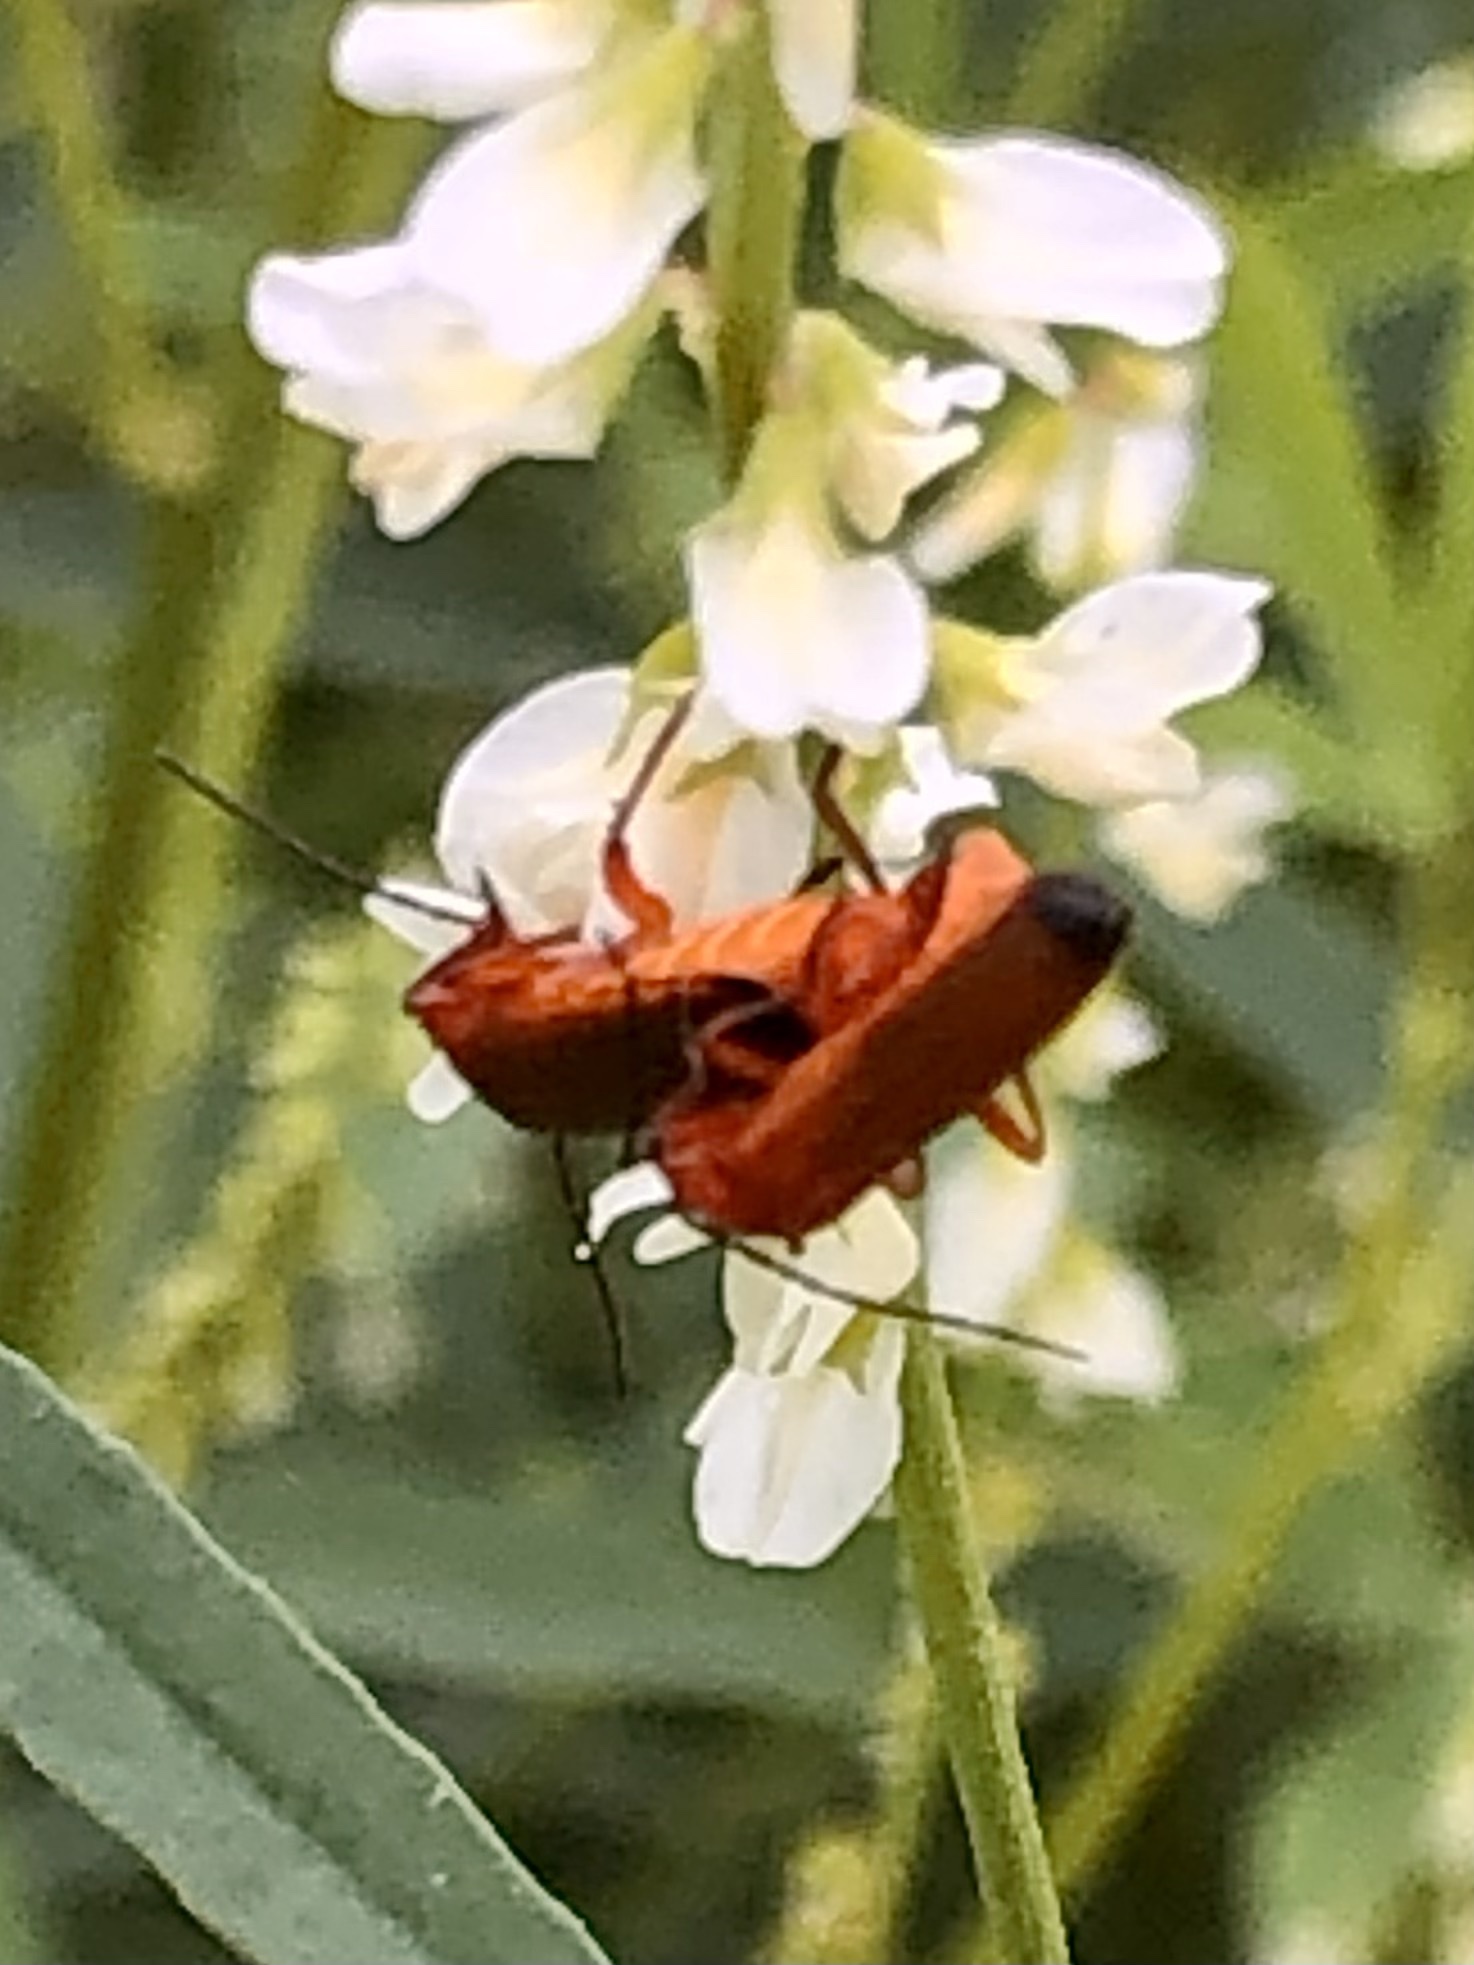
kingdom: Animalia
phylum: Arthropoda
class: Insecta
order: Coleoptera
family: Cantharidae
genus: Rhagonycha
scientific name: Rhagonycha fulva
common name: Common red soldier beetle
